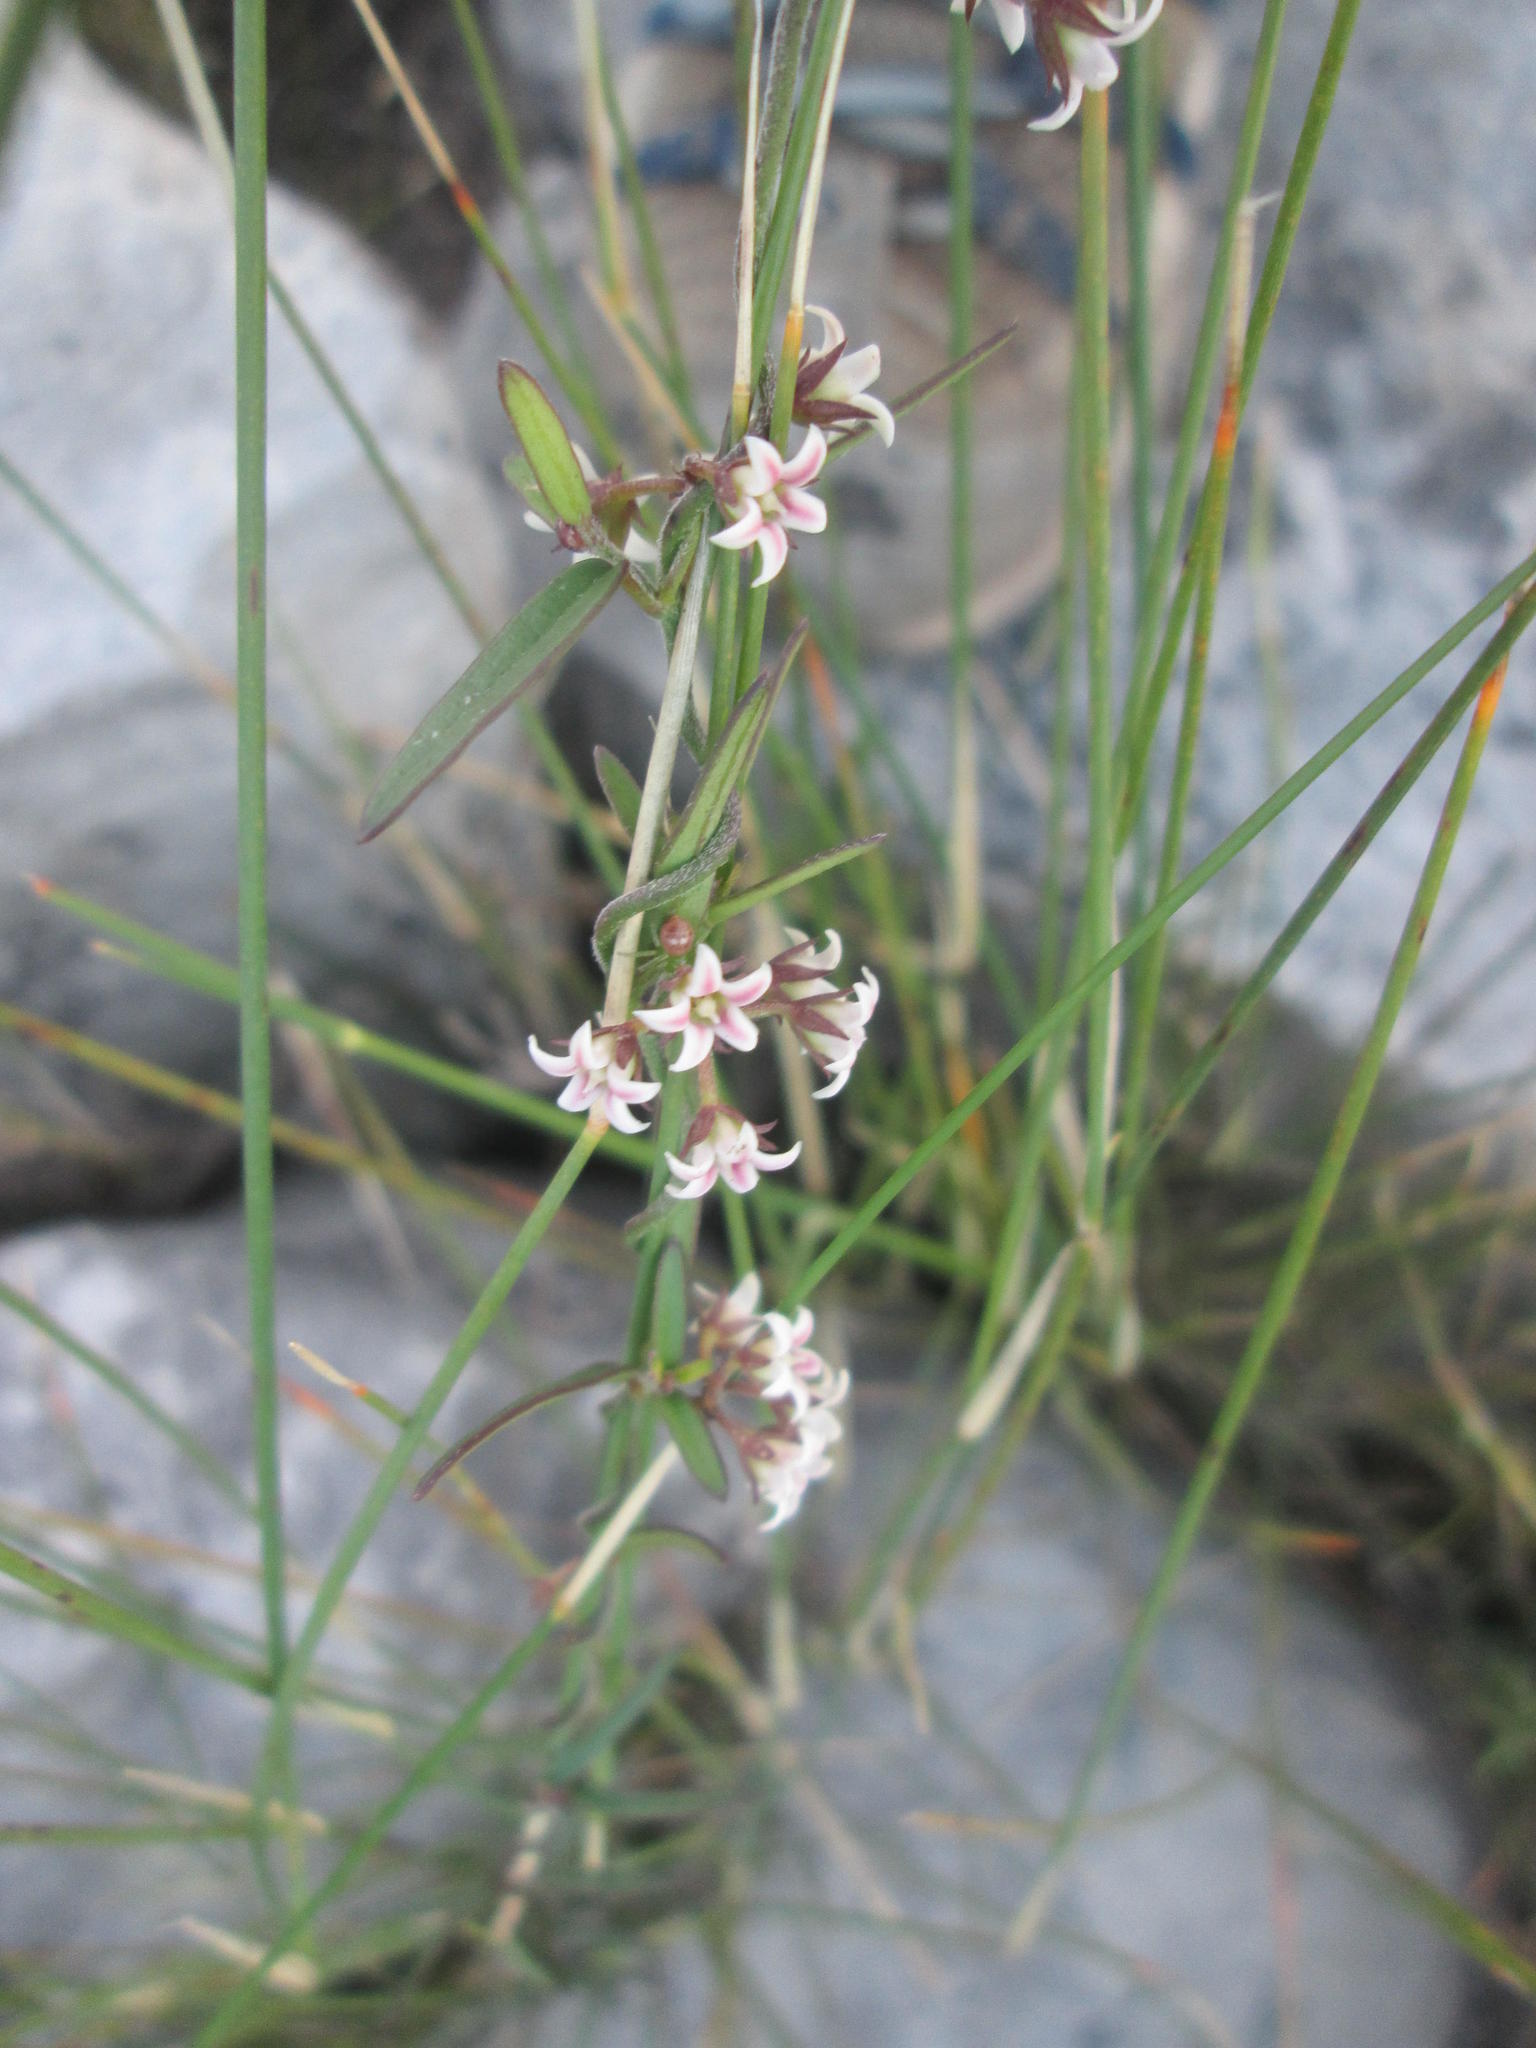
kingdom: Plantae
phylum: Tracheophyta
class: Magnoliopsida
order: Gentianales
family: Apocynaceae
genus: Astephanus
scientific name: Astephanus triflorus
